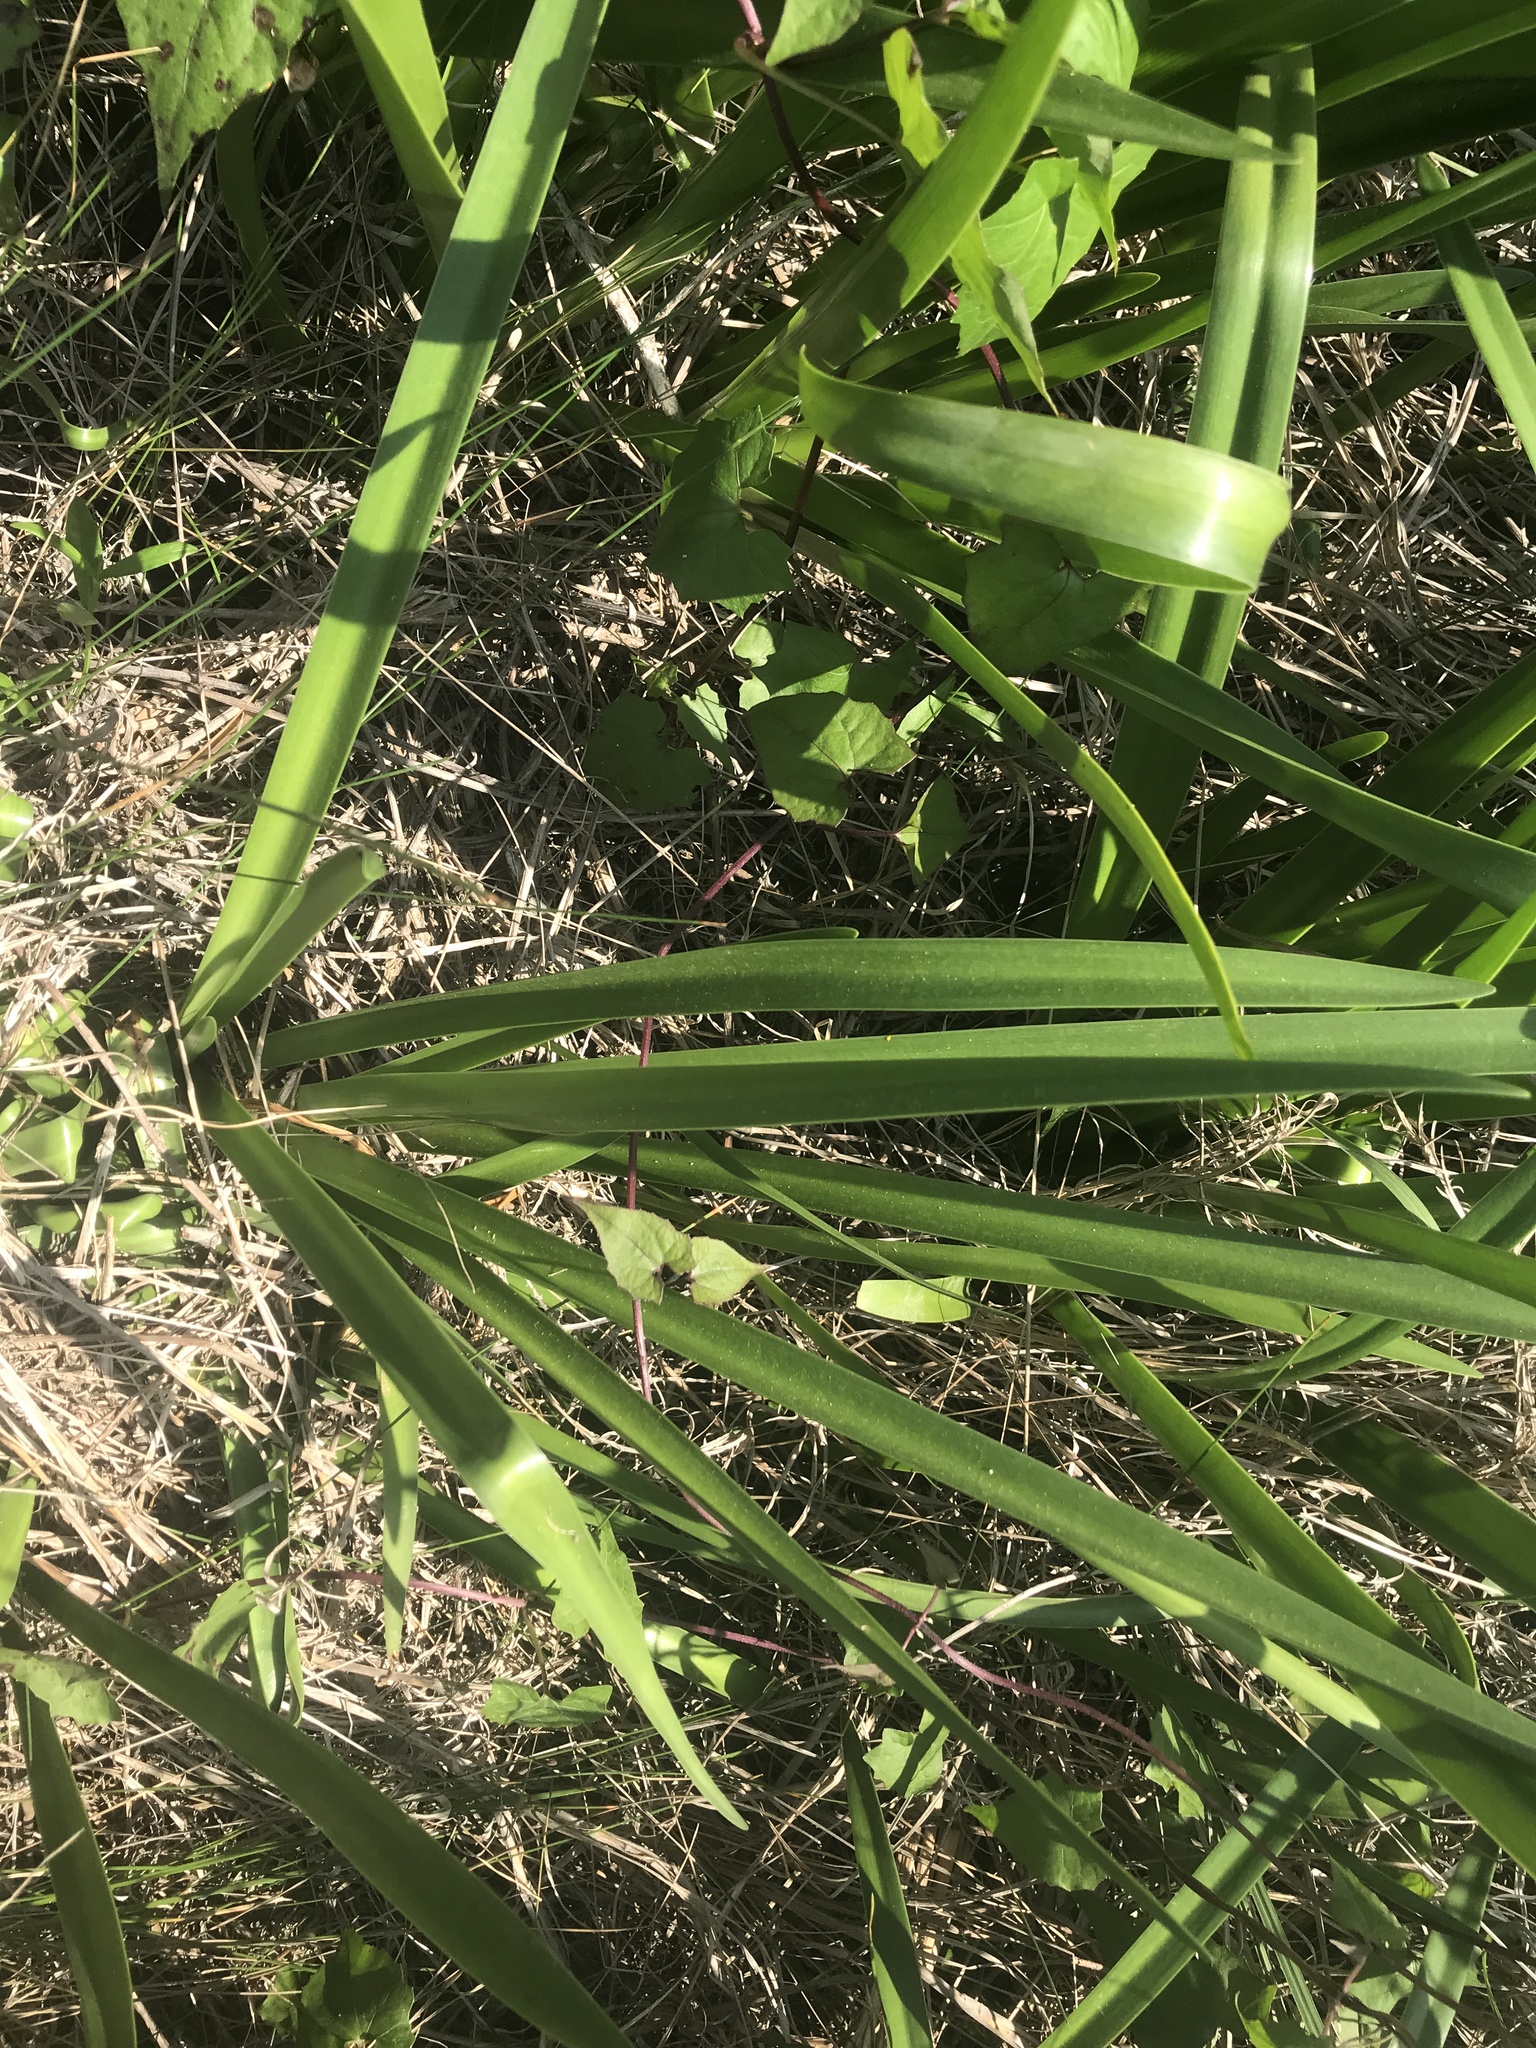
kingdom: Plantae
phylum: Tracheophyta
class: Liliopsida
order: Asparagales
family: Amaryllidaceae
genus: Hymenocallis
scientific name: Hymenocallis liriosme
